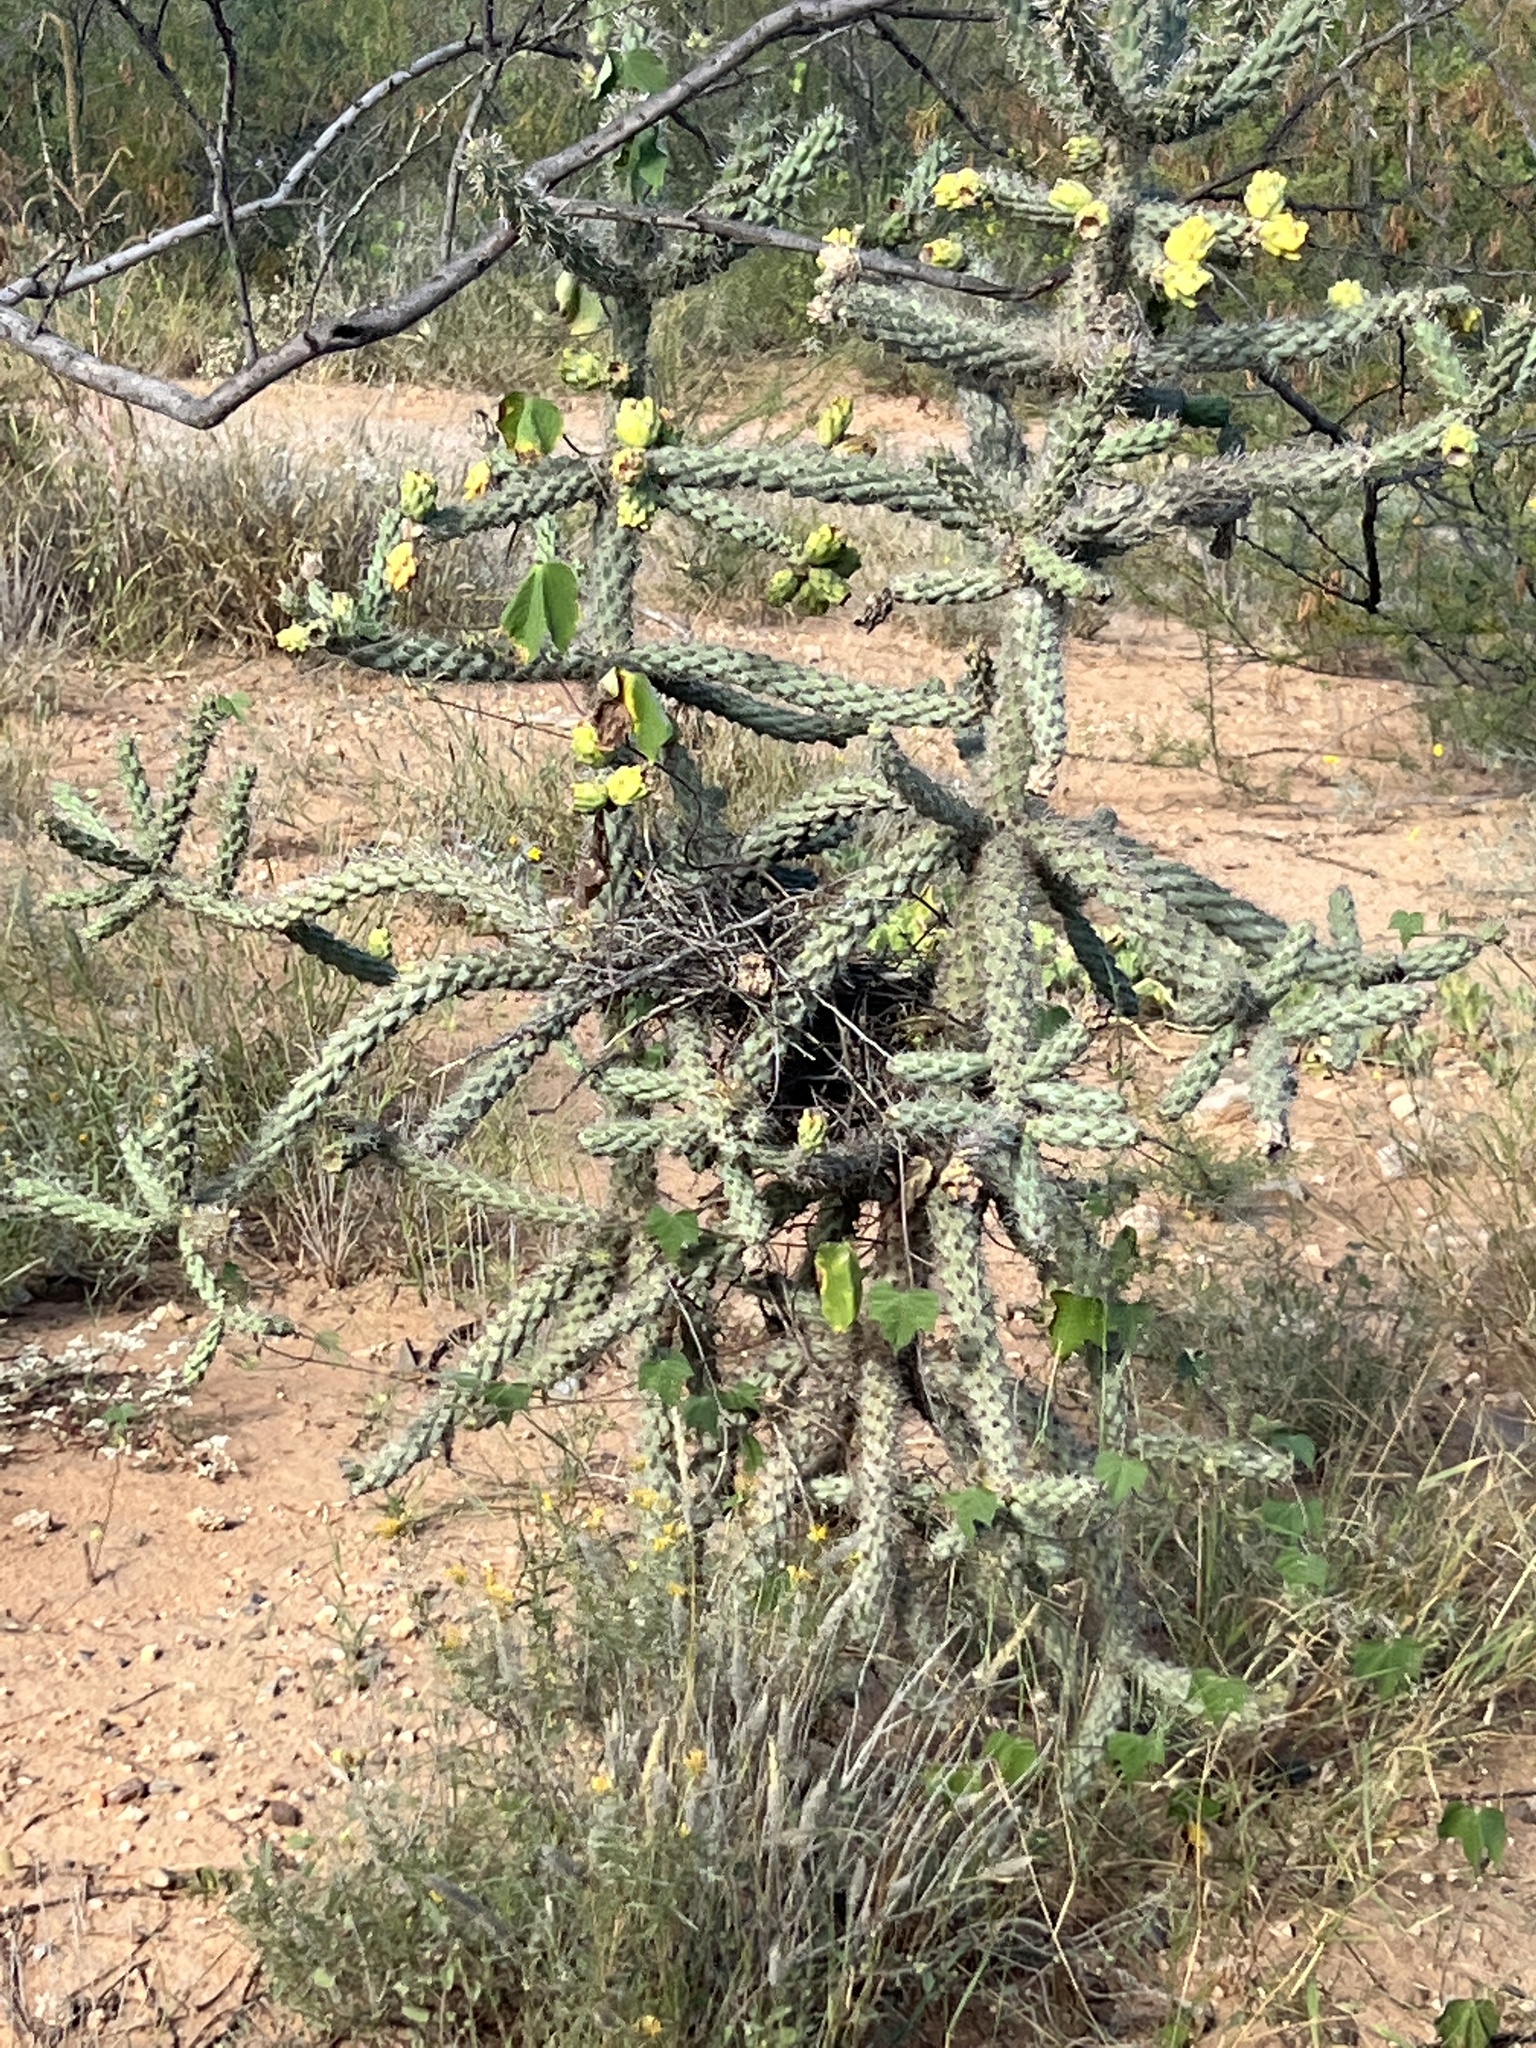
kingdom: Plantae
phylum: Tracheophyta
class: Magnoliopsida
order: Caryophyllales
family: Cactaceae
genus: Cylindropuntia
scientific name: Cylindropuntia imbricata
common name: Candelabrum cactus
